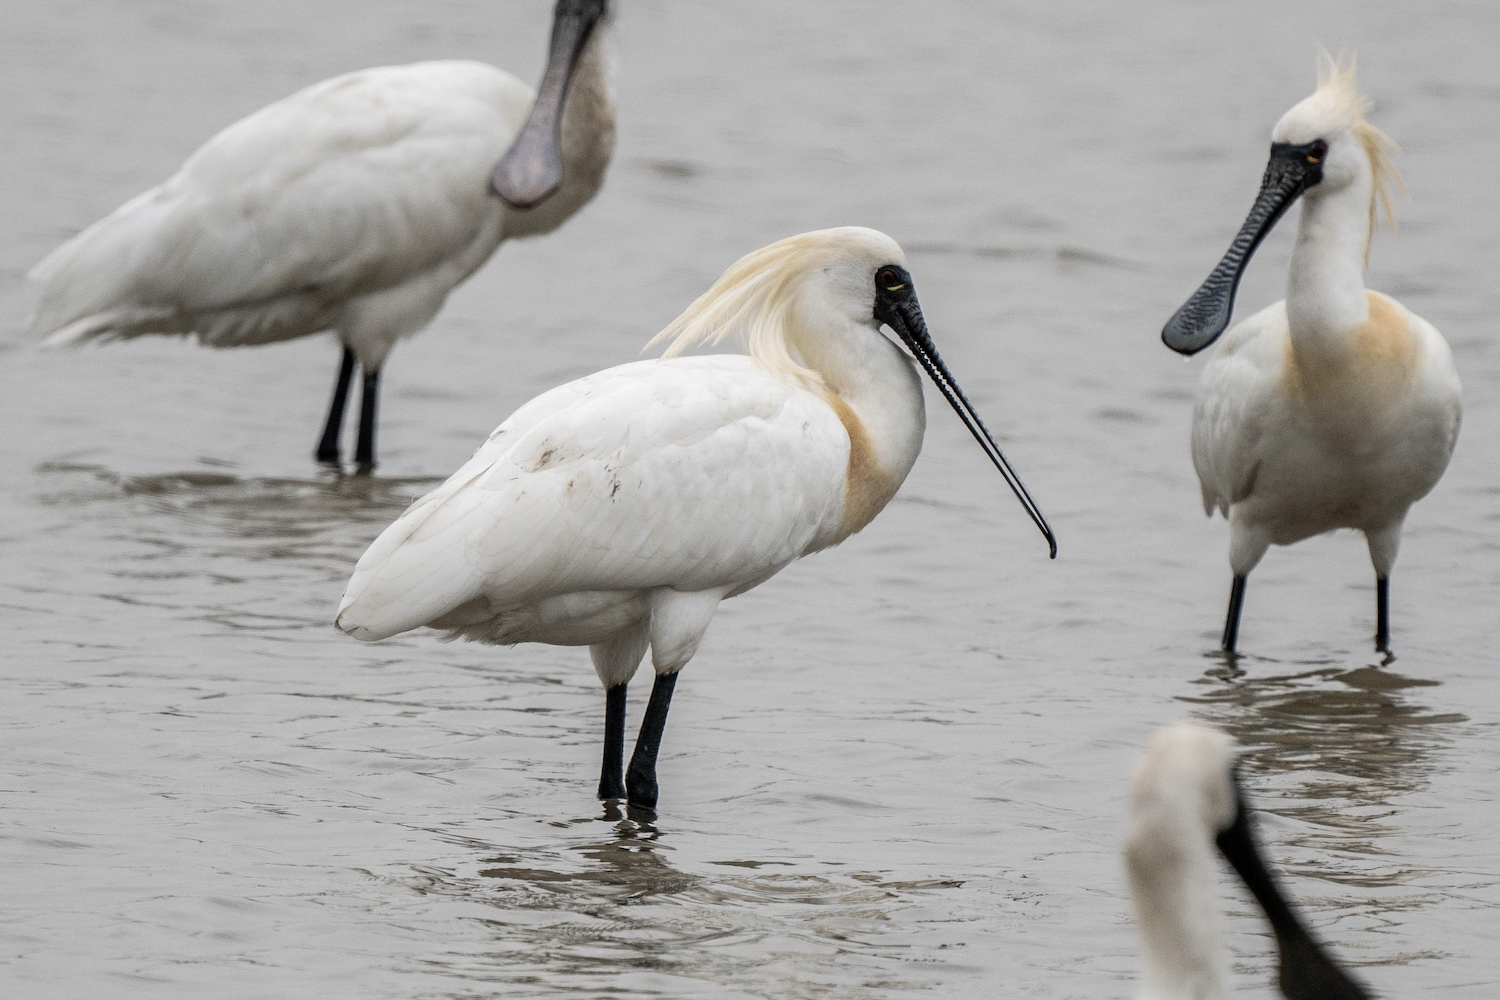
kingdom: Animalia
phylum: Chordata
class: Aves
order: Pelecaniformes
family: Threskiornithidae
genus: Platalea
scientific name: Platalea minor
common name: Black-faced spoonbill
